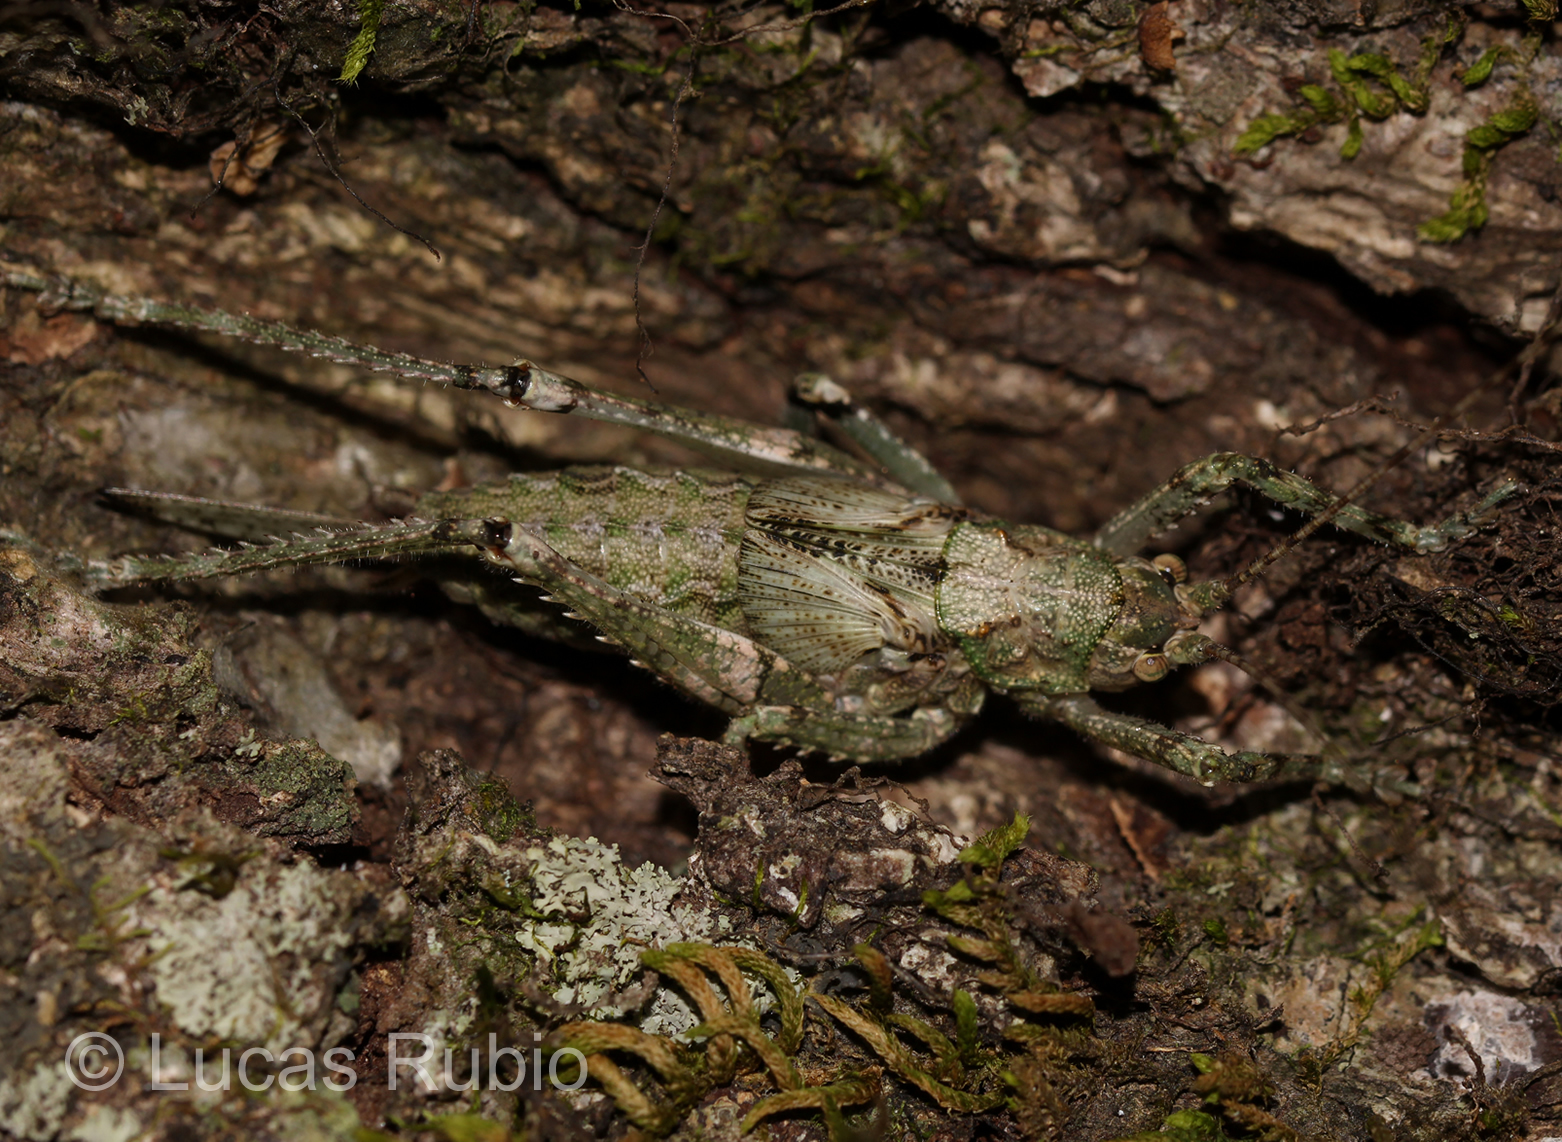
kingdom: Animalia
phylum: Arthropoda
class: Insecta
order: Orthoptera
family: Tettigoniidae
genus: Gongrocnemis
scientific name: Gongrocnemis hilaris
